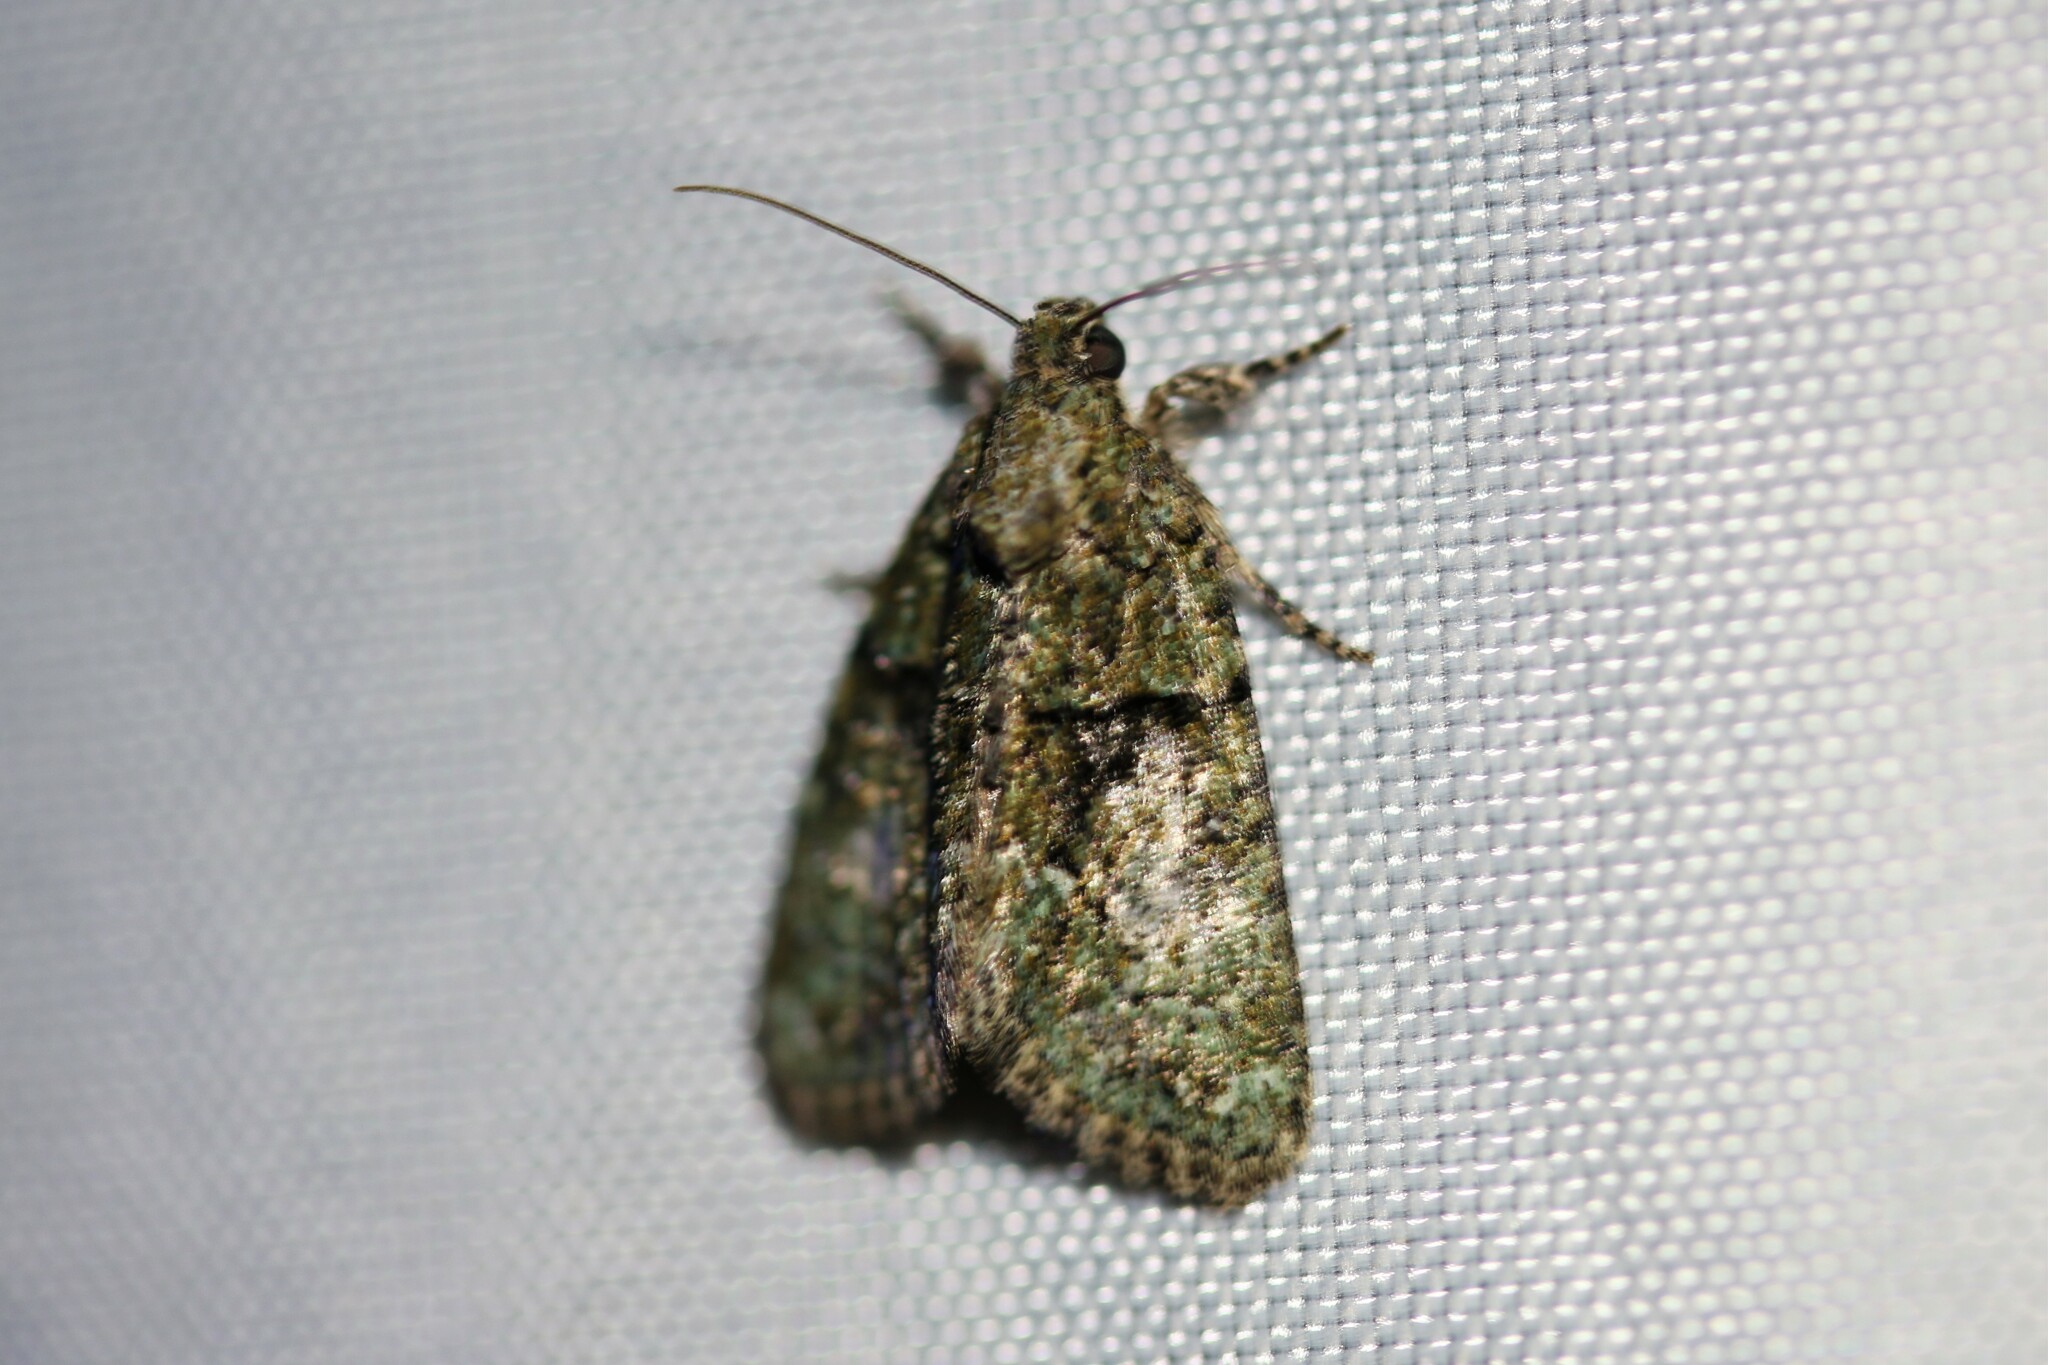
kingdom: Animalia
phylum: Arthropoda
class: Insecta
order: Lepidoptera
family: Noctuidae
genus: Cryphia
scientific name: Cryphia algae
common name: Tree-lichen beauty
